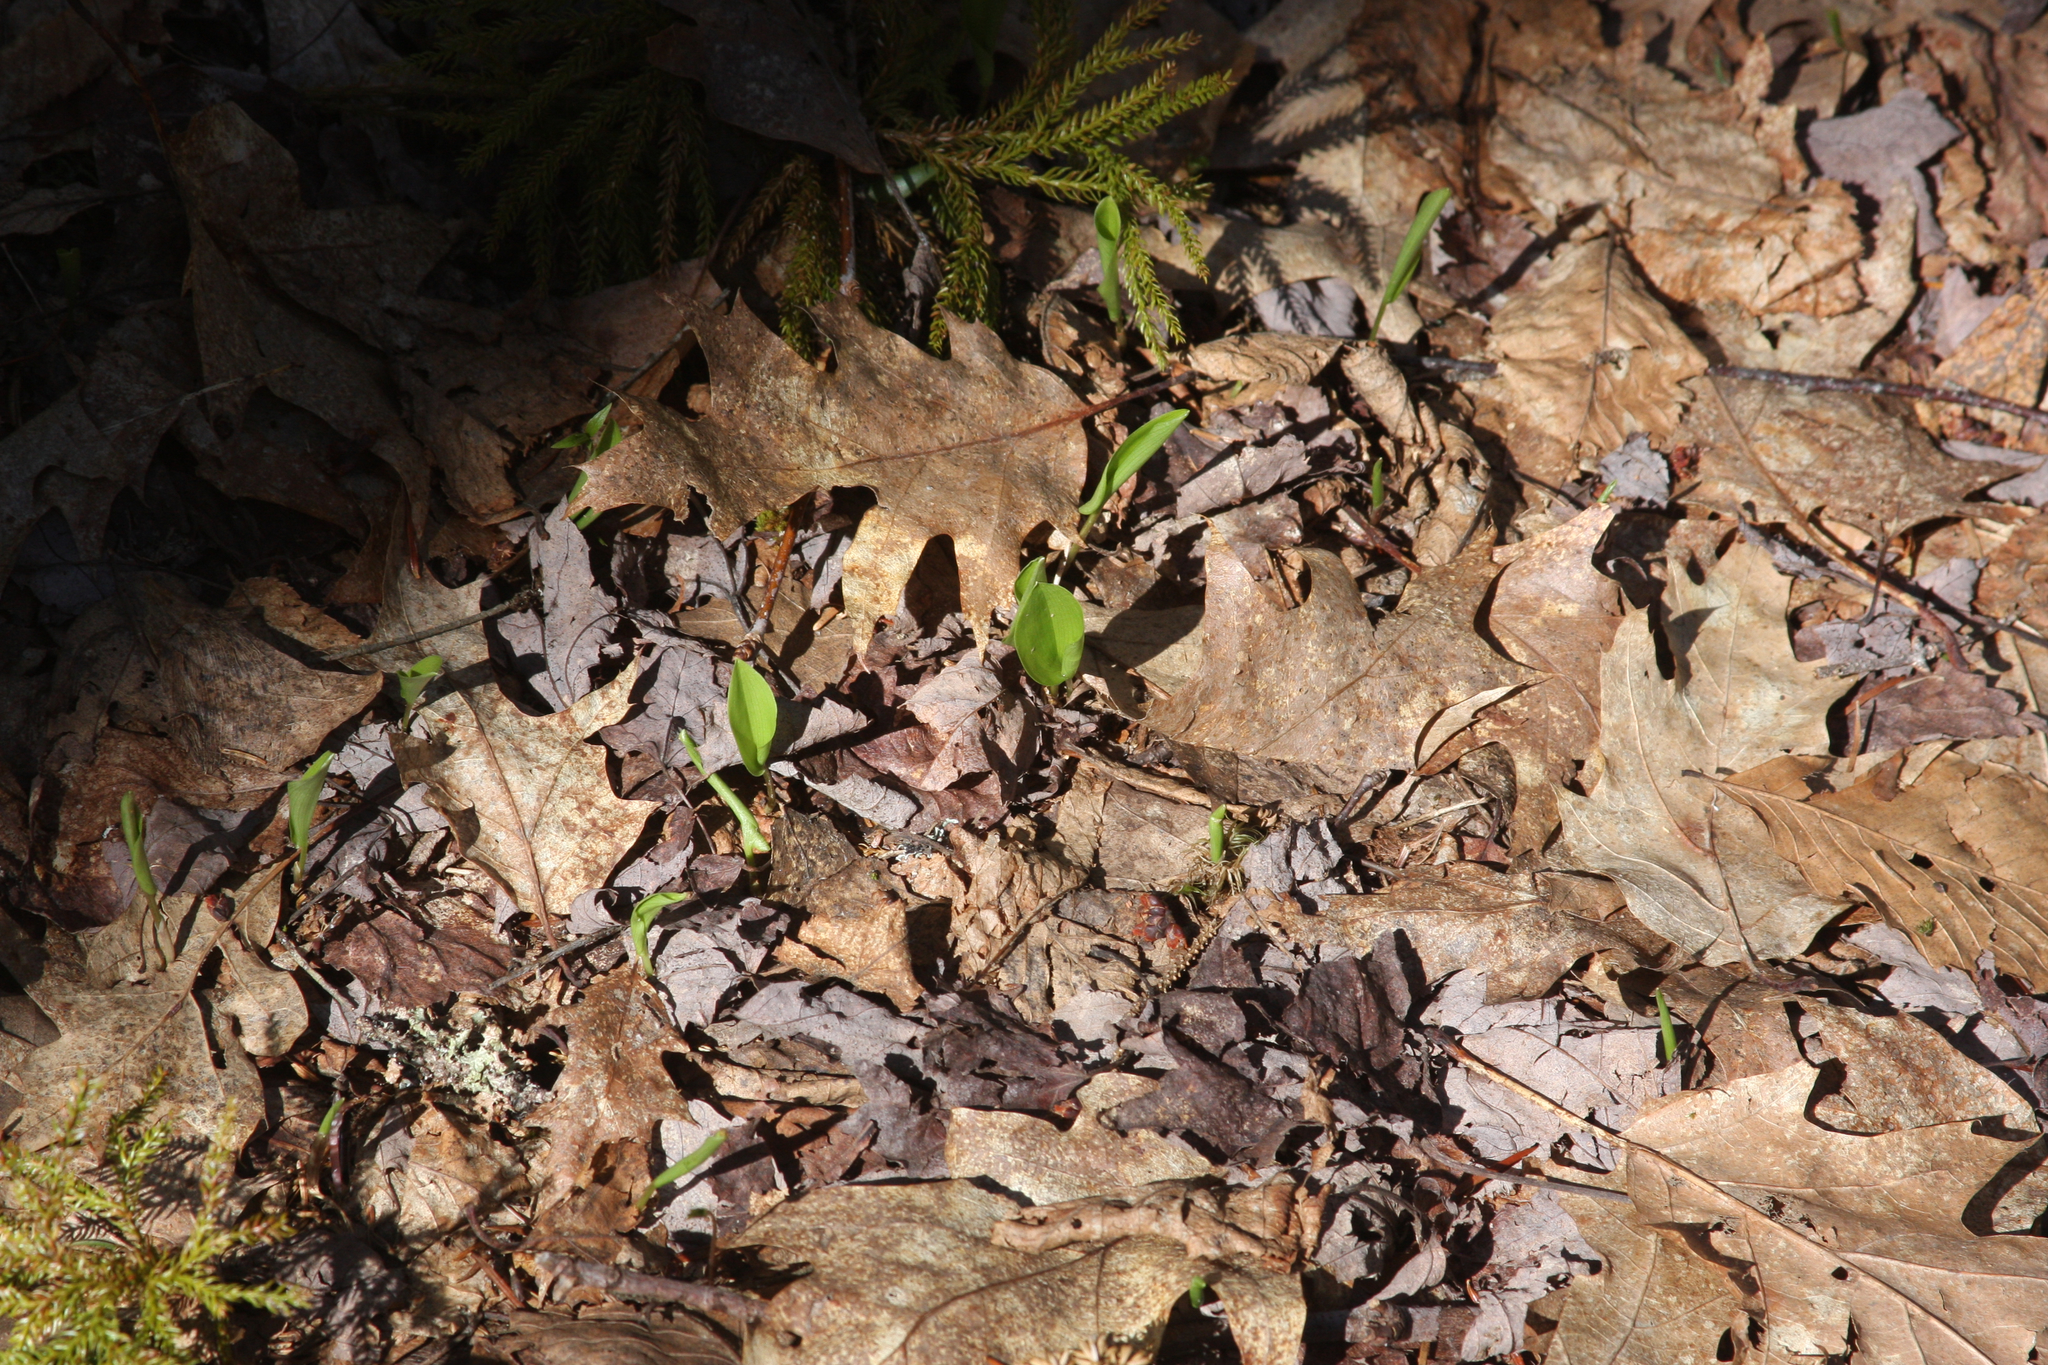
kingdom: Plantae
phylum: Tracheophyta
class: Liliopsida
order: Asparagales
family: Asparagaceae
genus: Maianthemum
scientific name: Maianthemum canadense
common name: False lily-of-the-valley
